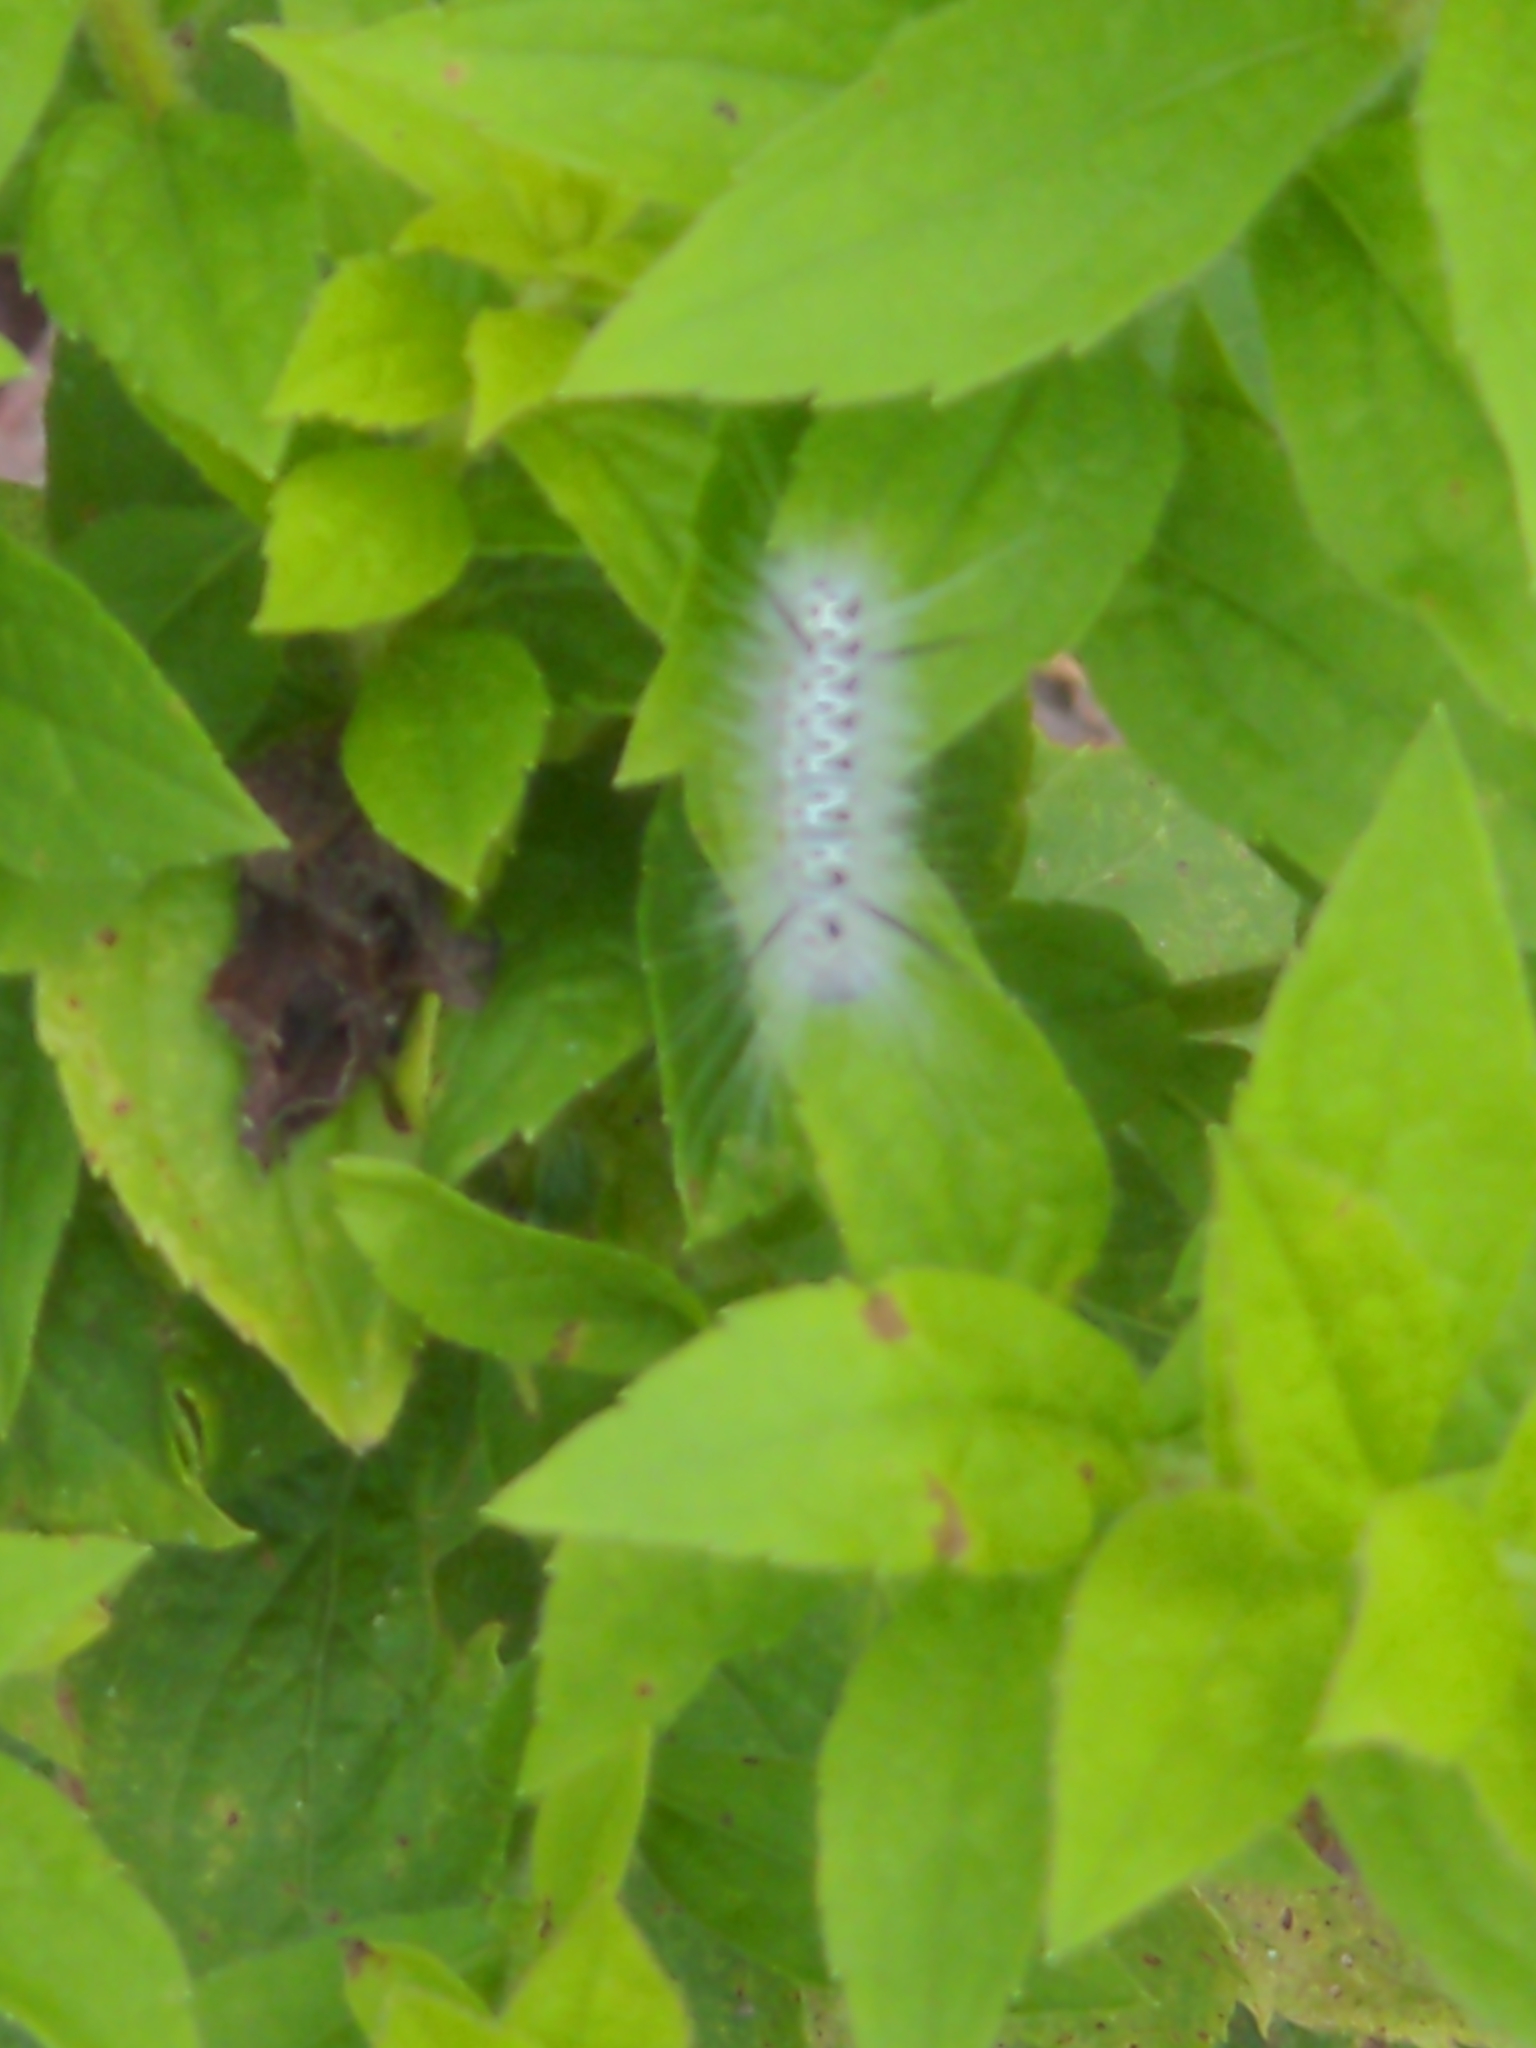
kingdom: Animalia
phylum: Arthropoda
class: Insecta
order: Lepidoptera
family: Erebidae
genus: Lophocampa
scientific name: Lophocampa caryae
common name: Hickory tussock moth
